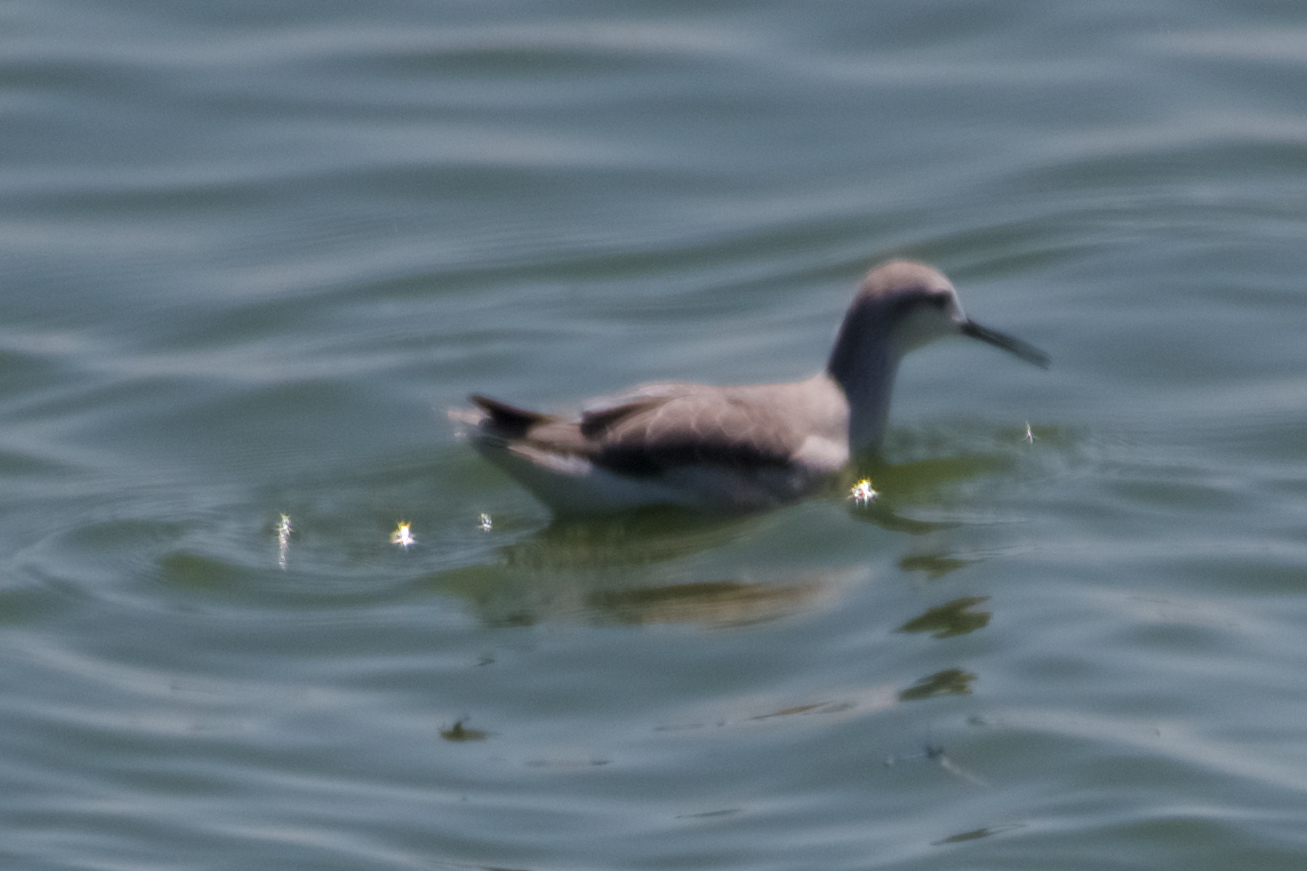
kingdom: Animalia
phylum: Chordata
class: Aves
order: Charadriiformes
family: Scolopacidae
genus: Phalaropus
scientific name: Phalaropus tricolor
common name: Wilson's phalarope
